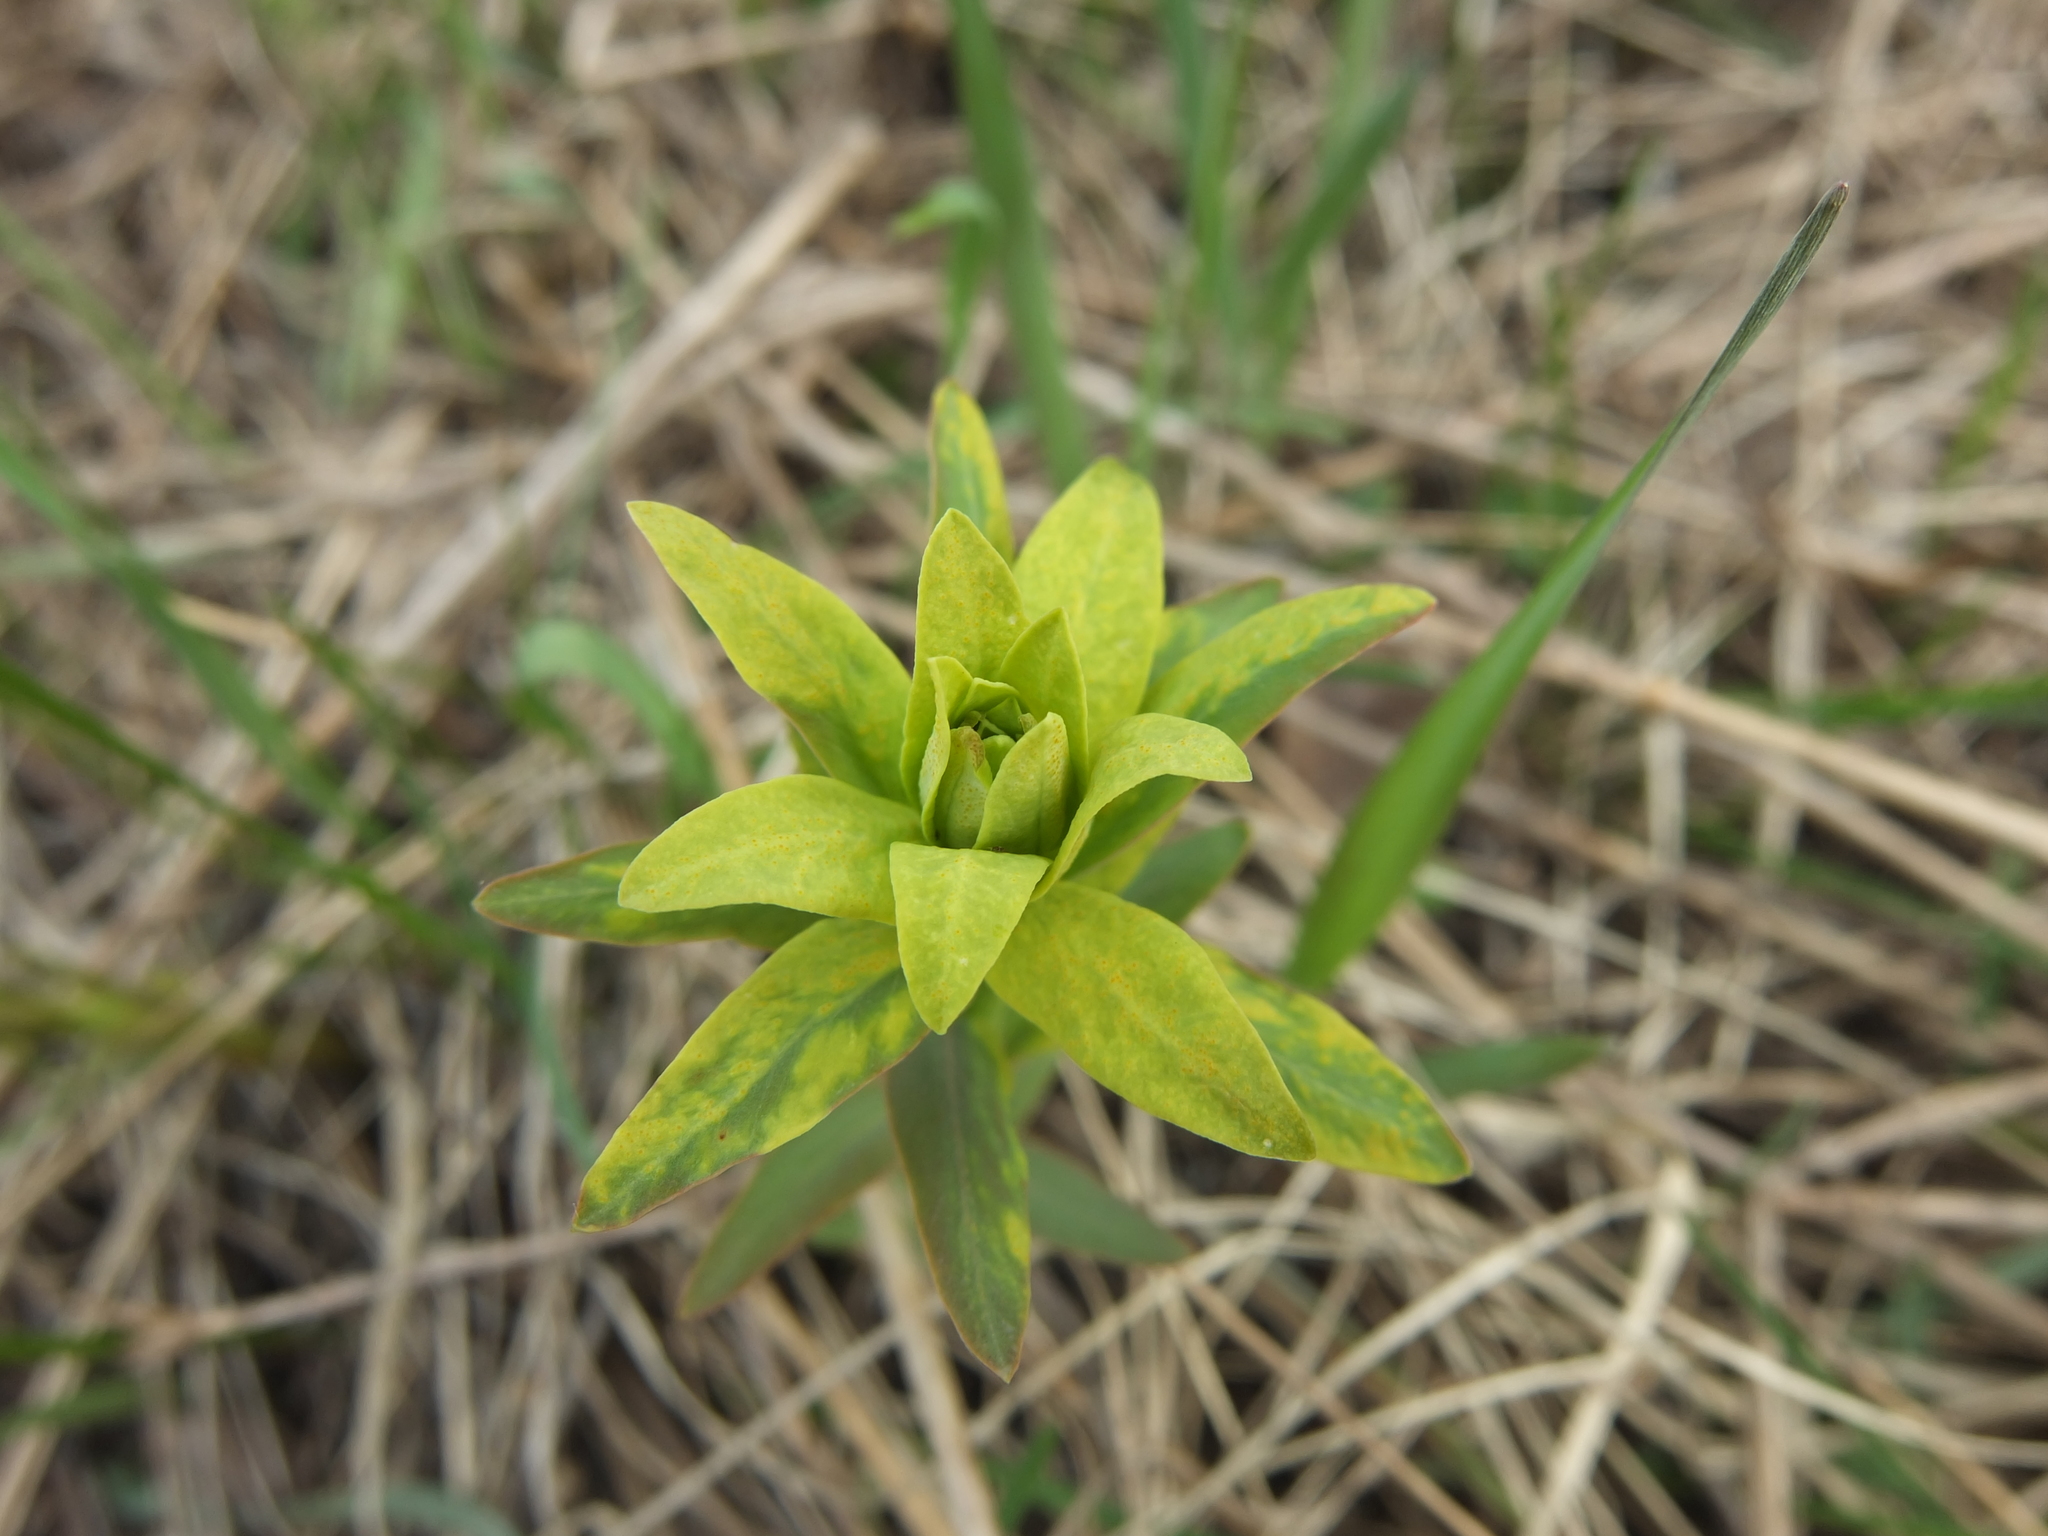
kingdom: Plantae
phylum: Tracheophyta
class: Magnoliopsida
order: Malpighiales
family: Euphorbiaceae
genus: Euphorbia
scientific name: Euphorbia virgata
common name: Leafy spurge
